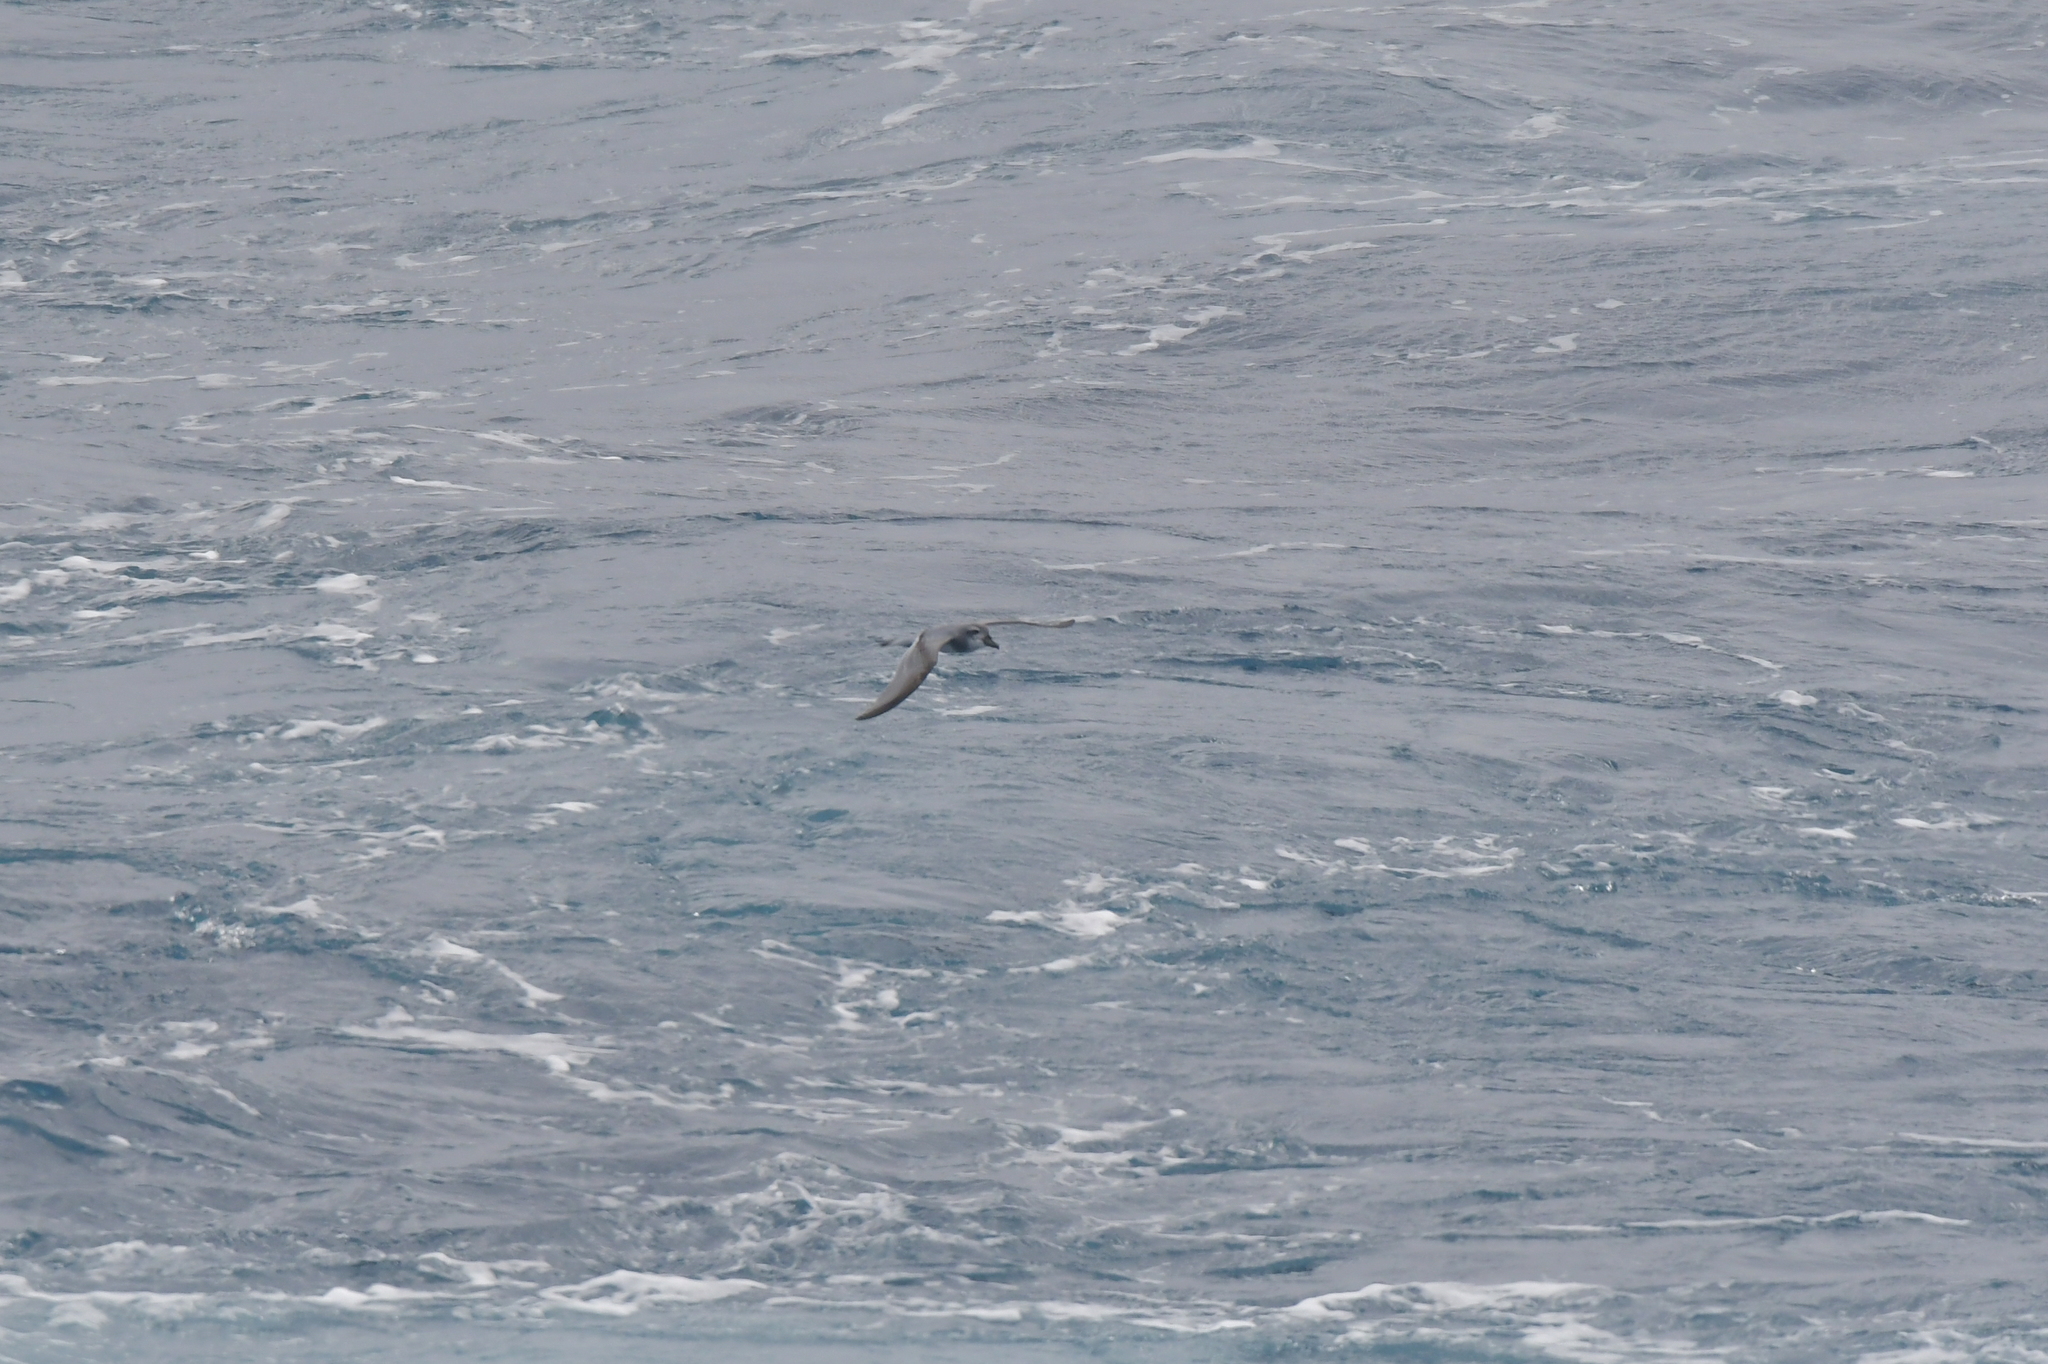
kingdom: Animalia
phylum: Chordata
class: Aves
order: Procellariiformes
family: Procellariidae
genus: Pachyptila
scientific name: Pachyptila vittata
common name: Broad-billed prion
